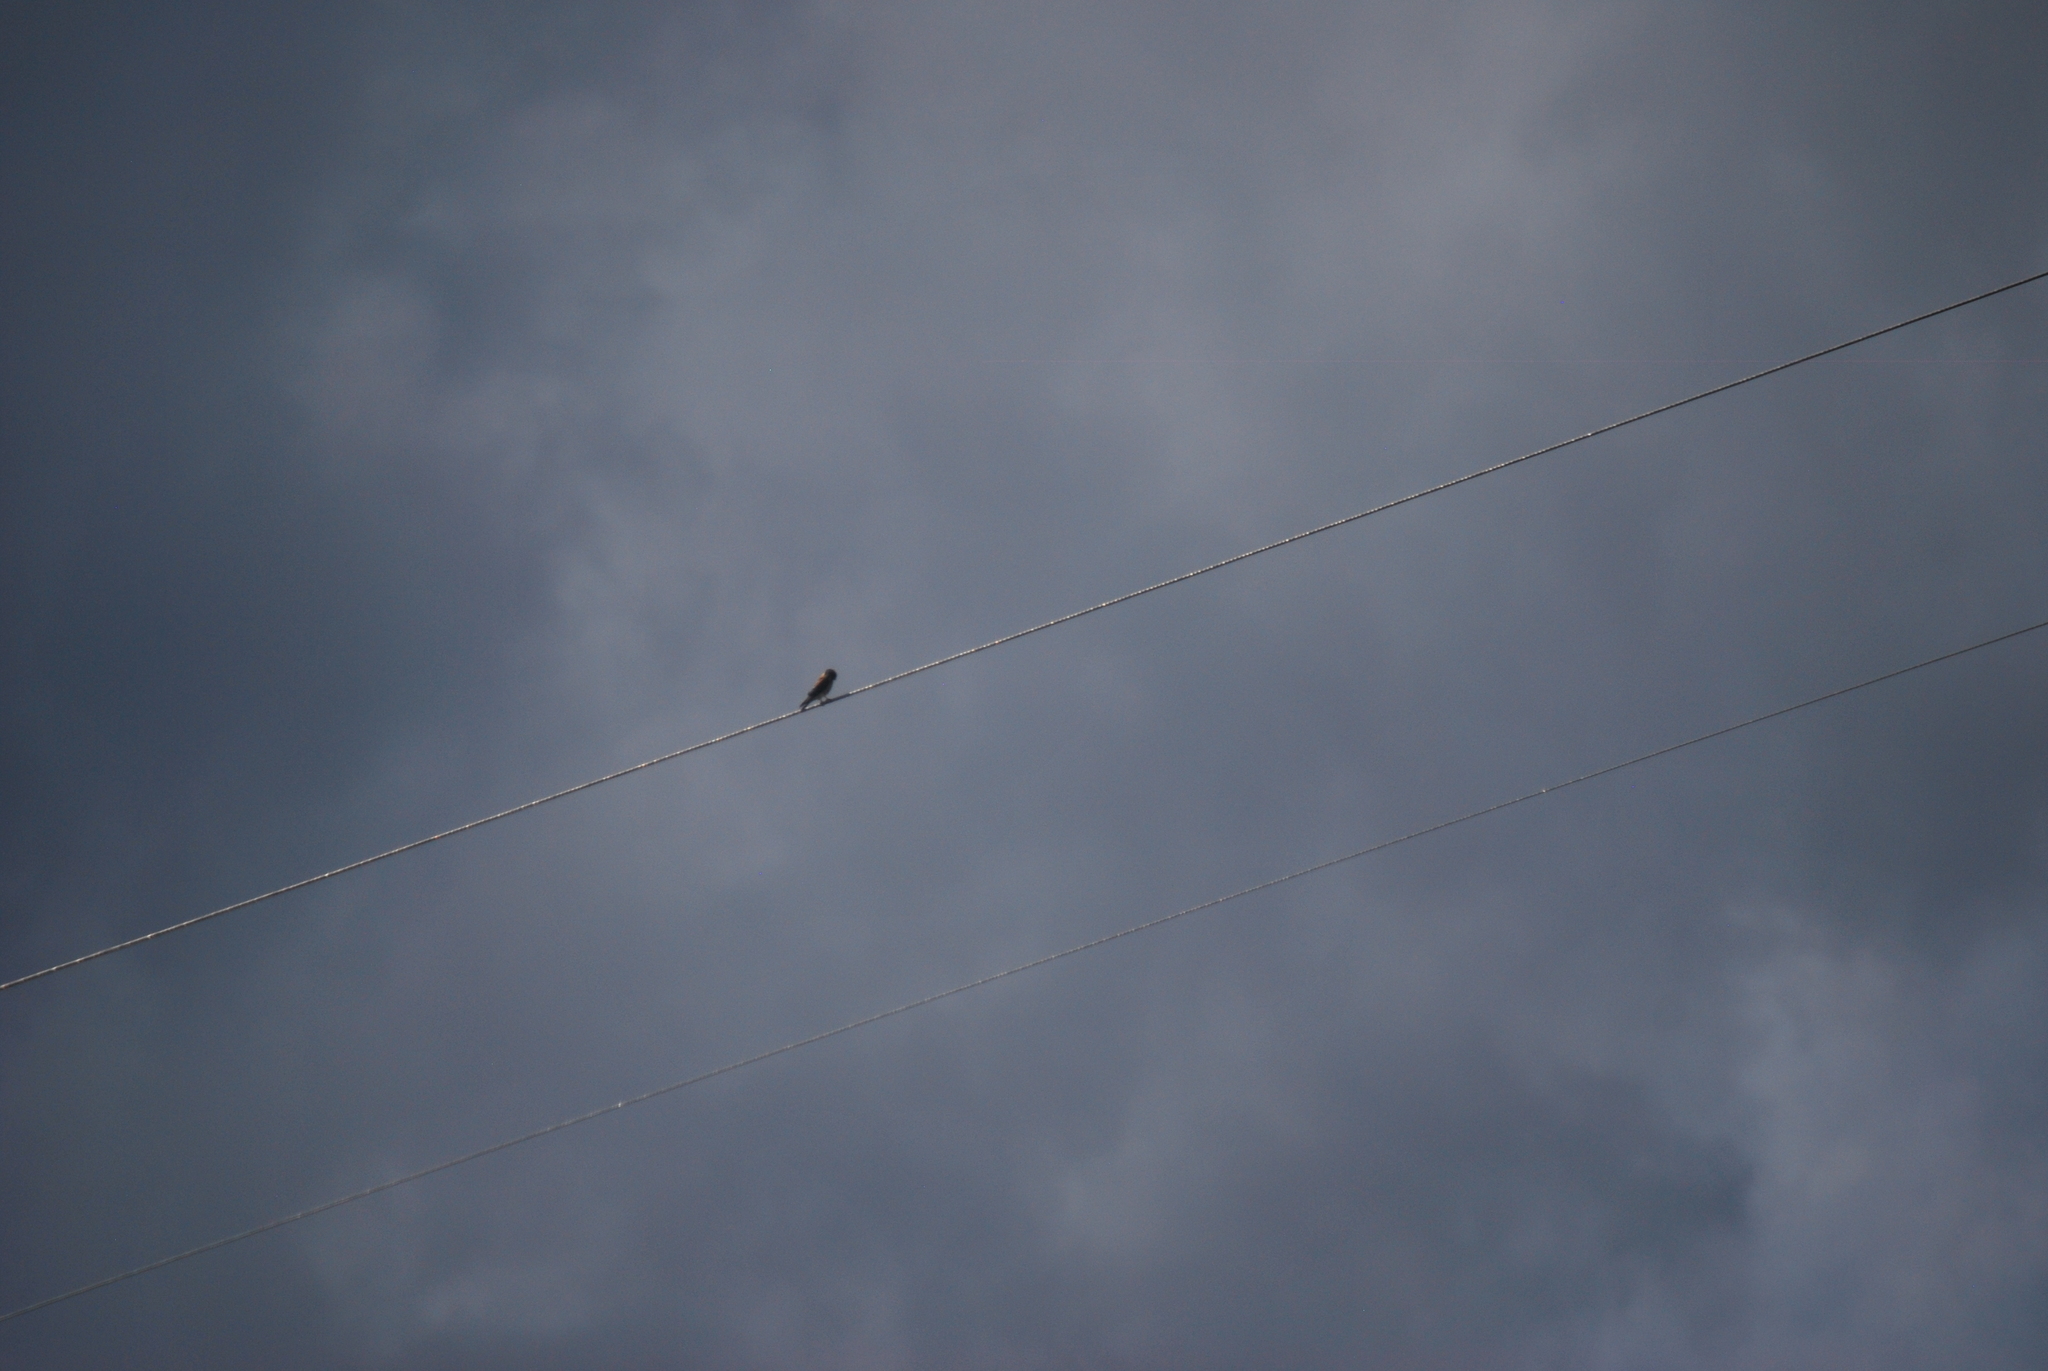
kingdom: Animalia
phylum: Chordata
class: Aves
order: Falconiformes
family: Falconidae
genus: Falco
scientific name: Falco sparverius
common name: American kestrel
